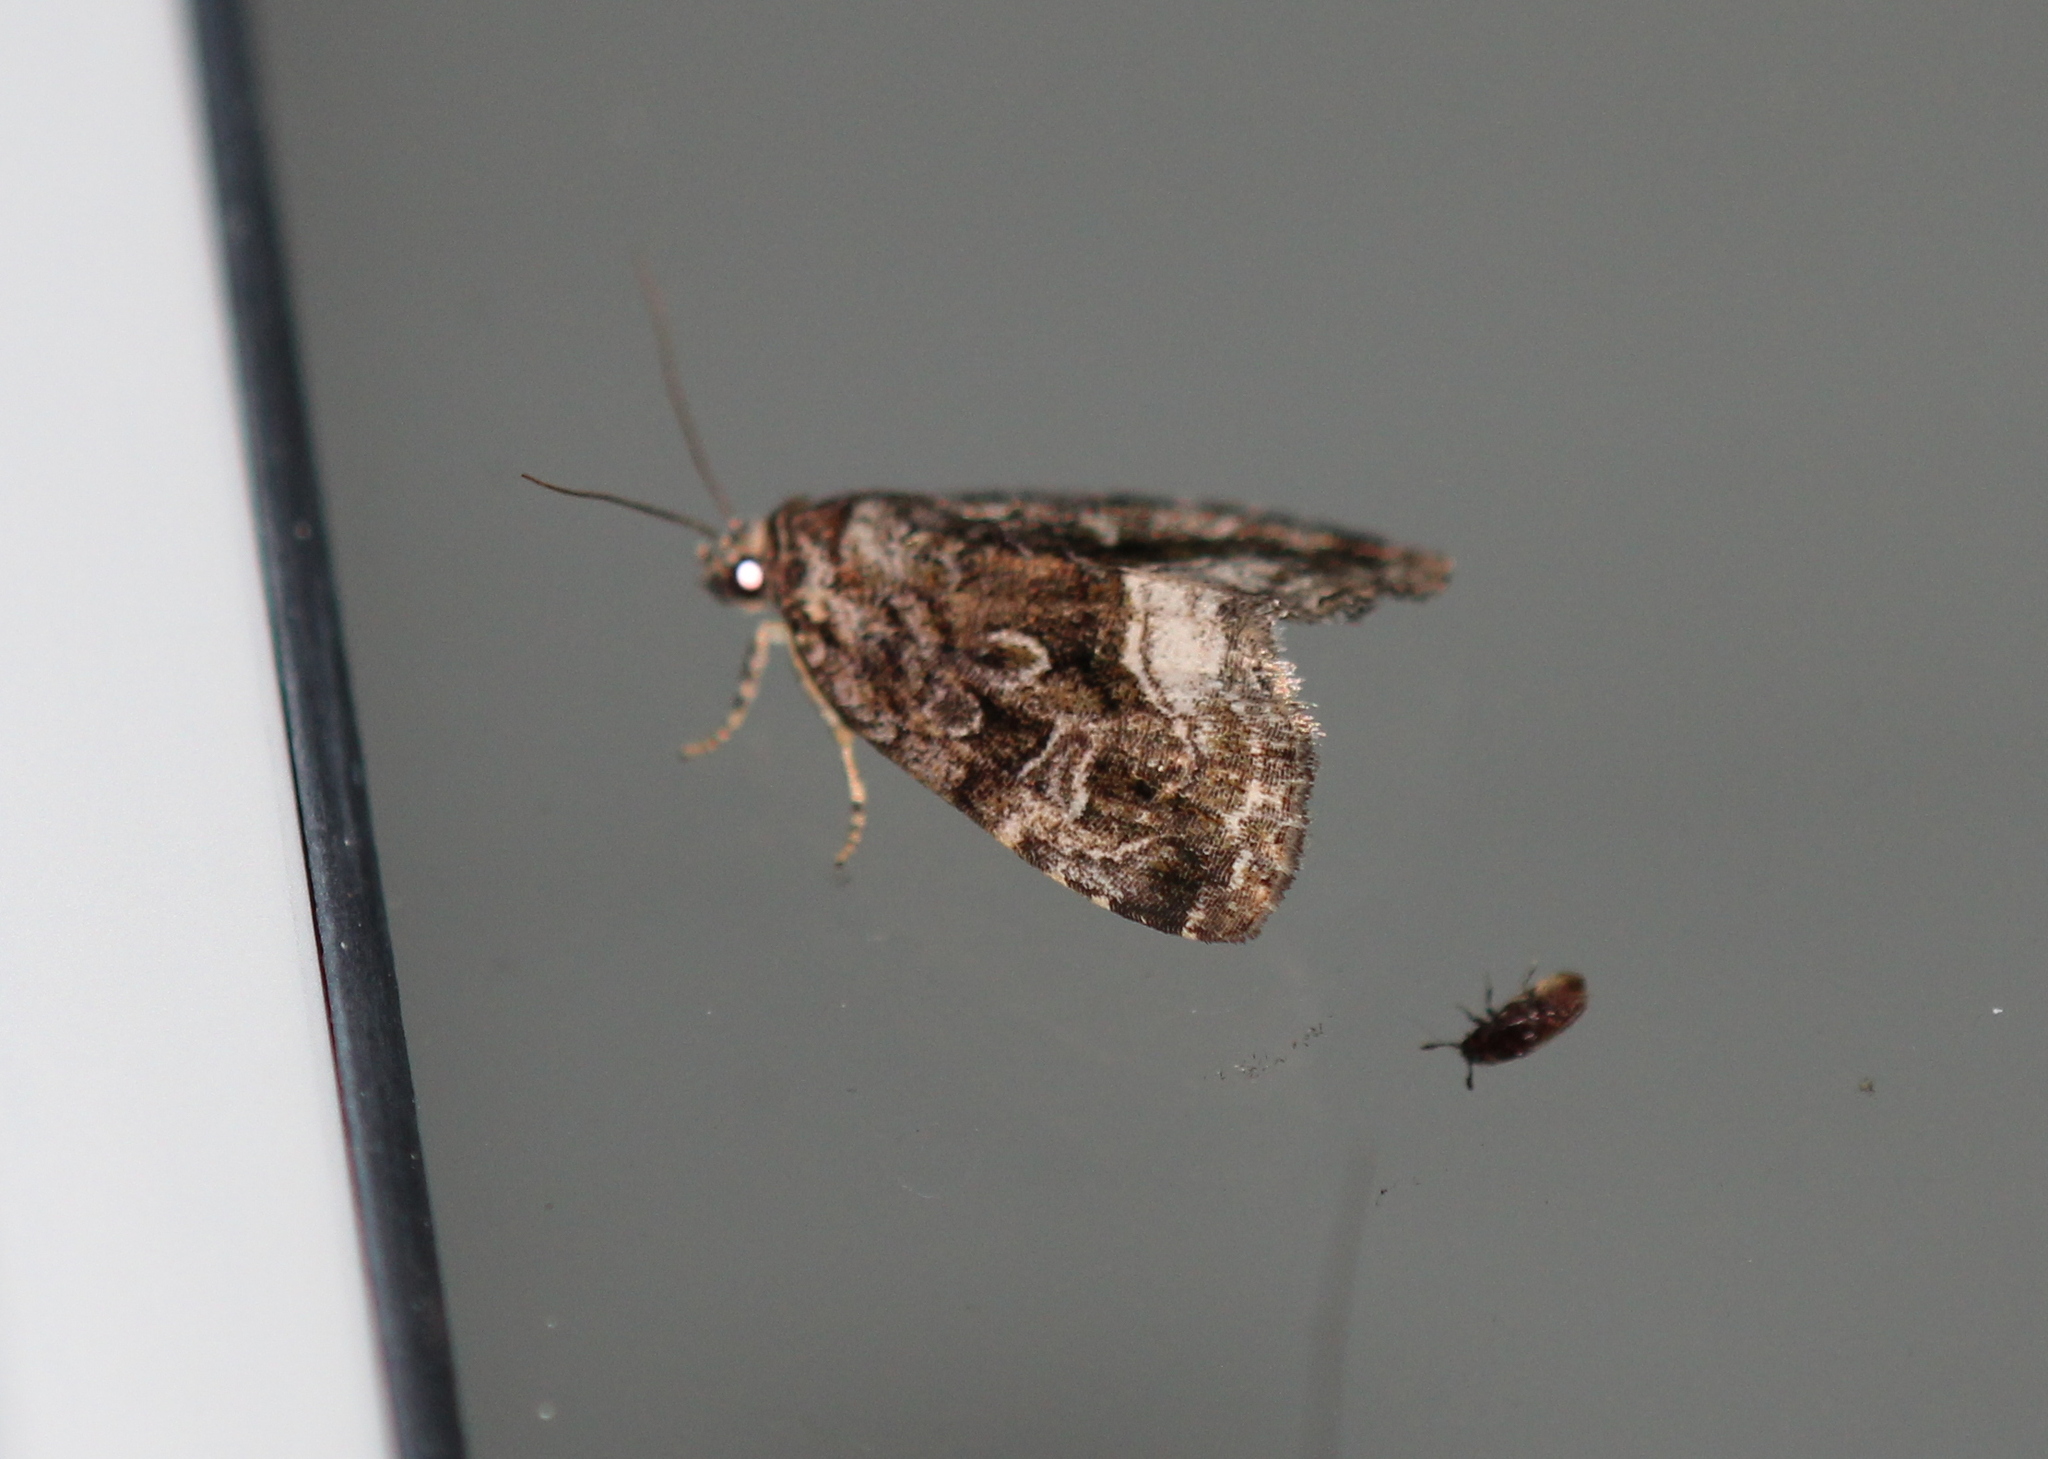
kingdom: Animalia
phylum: Arthropoda
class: Insecta
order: Lepidoptera
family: Noctuidae
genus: Protodeltote
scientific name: Protodeltote muscosula
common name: Large mossy glyph
